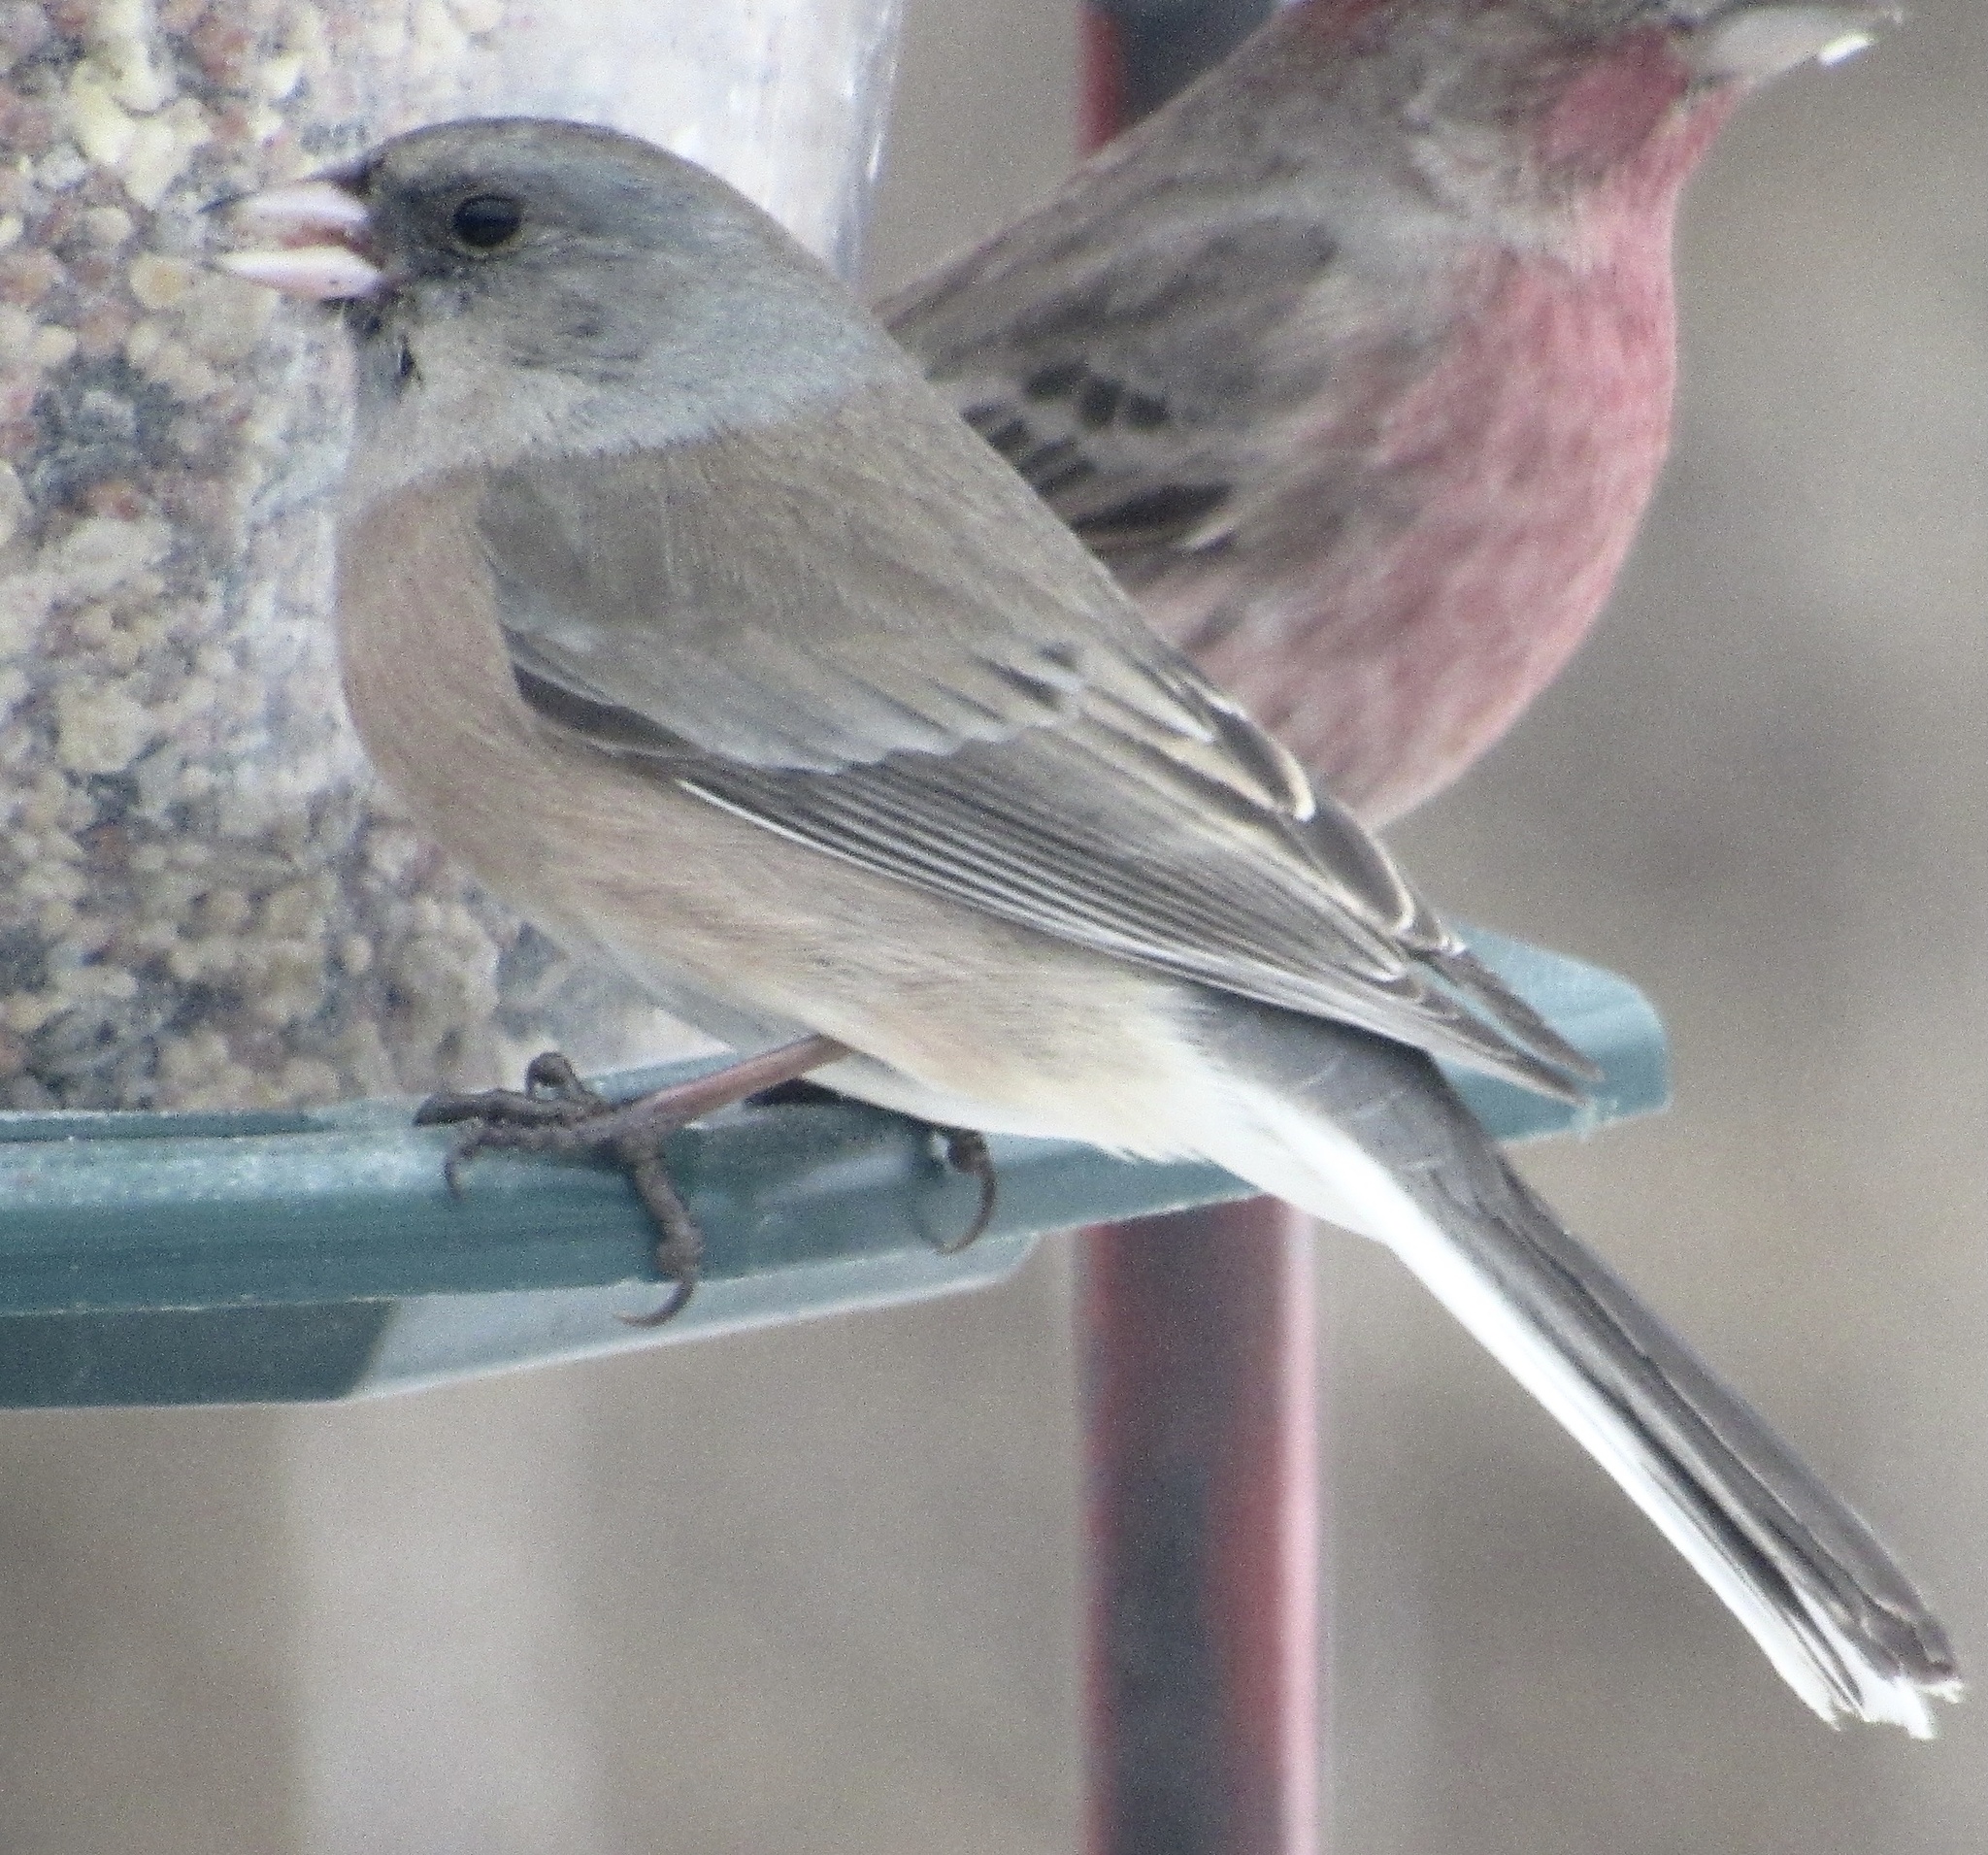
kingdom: Animalia
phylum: Chordata
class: Aves
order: Passeriformes
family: Passerellidae
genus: Junco
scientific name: Junco hyemalis
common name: Dark-eyed junco
